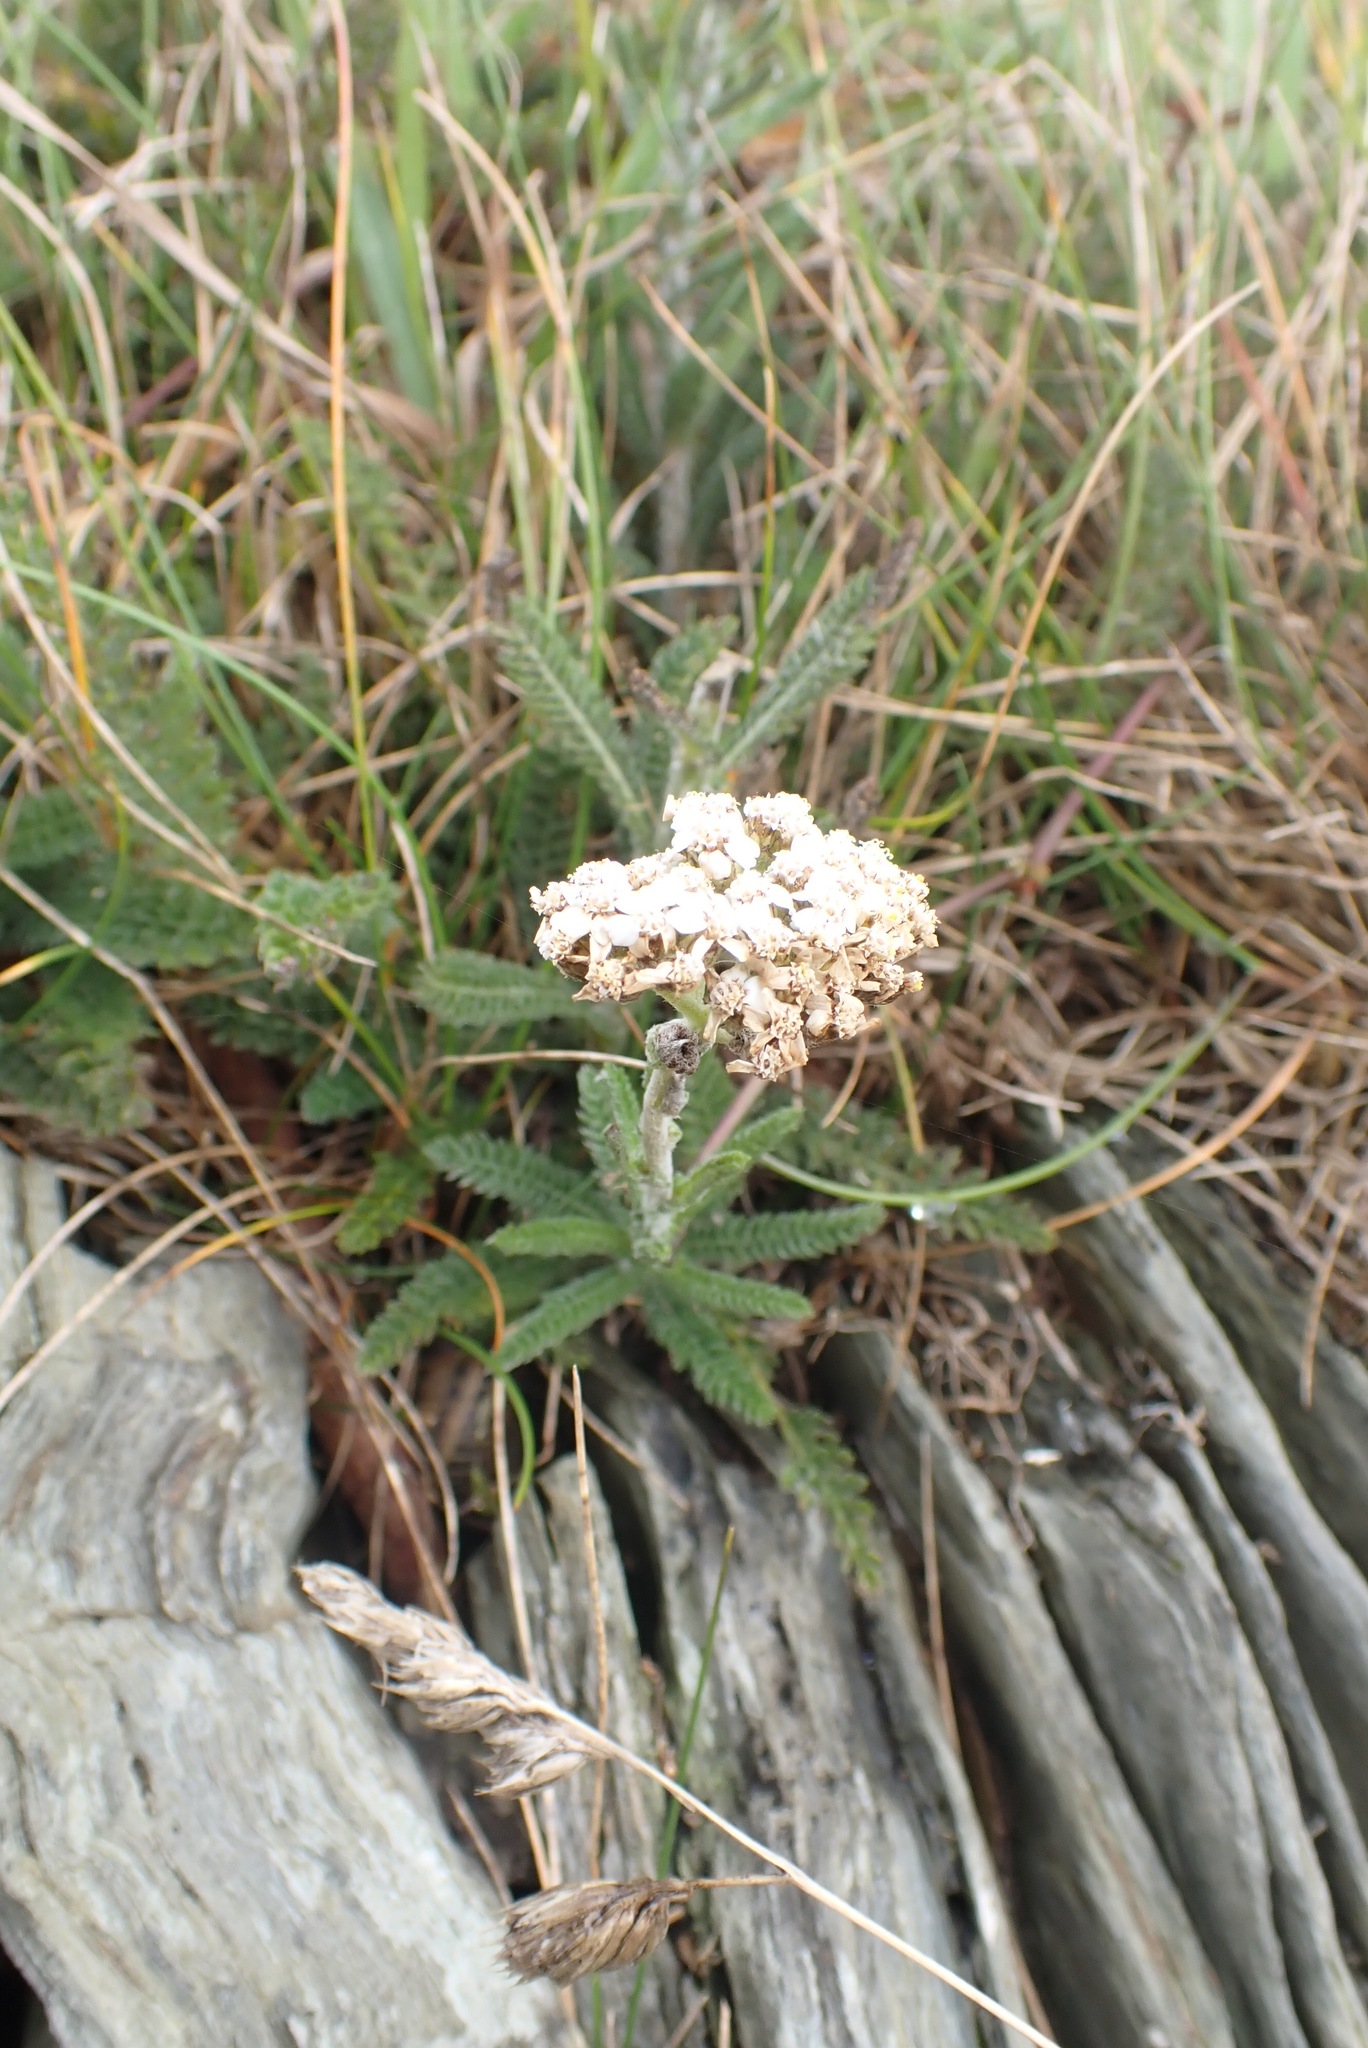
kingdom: Plantae
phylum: Tracheophyta
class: Magnoliopsida
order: Asterales
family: Asteraceae
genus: Achillea
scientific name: Achillea millefolium
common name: Yarrow
